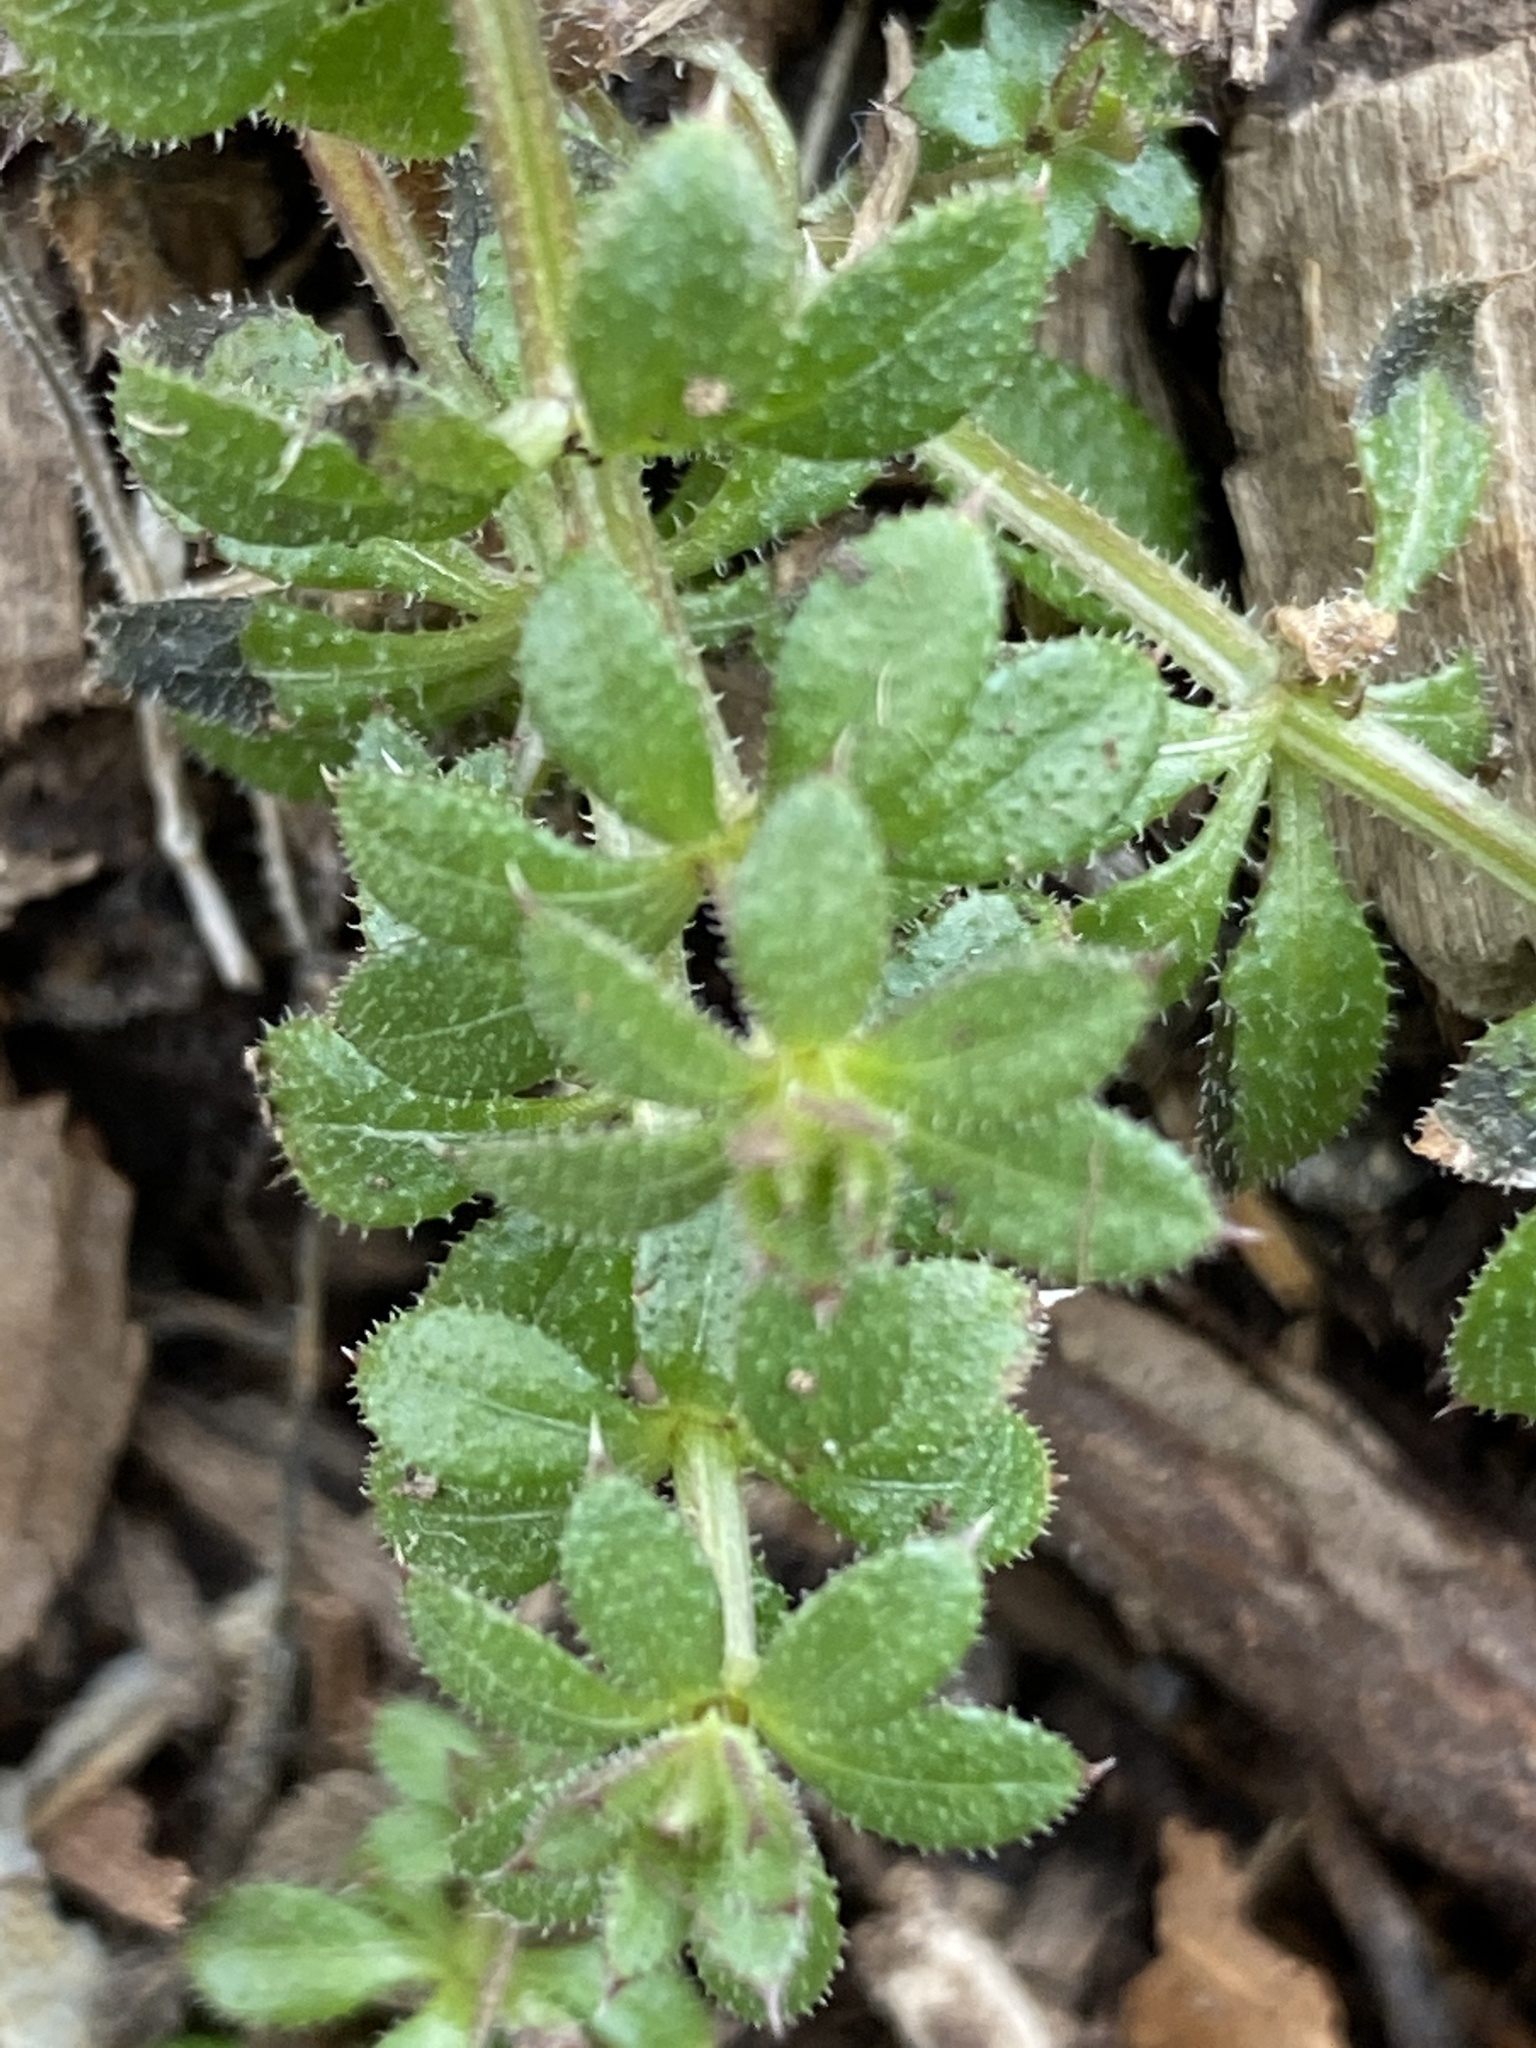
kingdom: Plantae
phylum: Tracheophyta
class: Magnoliopsida
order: Gentianales
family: Rubiaceae
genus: Galium
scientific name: Galium aparine
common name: Cleavers
